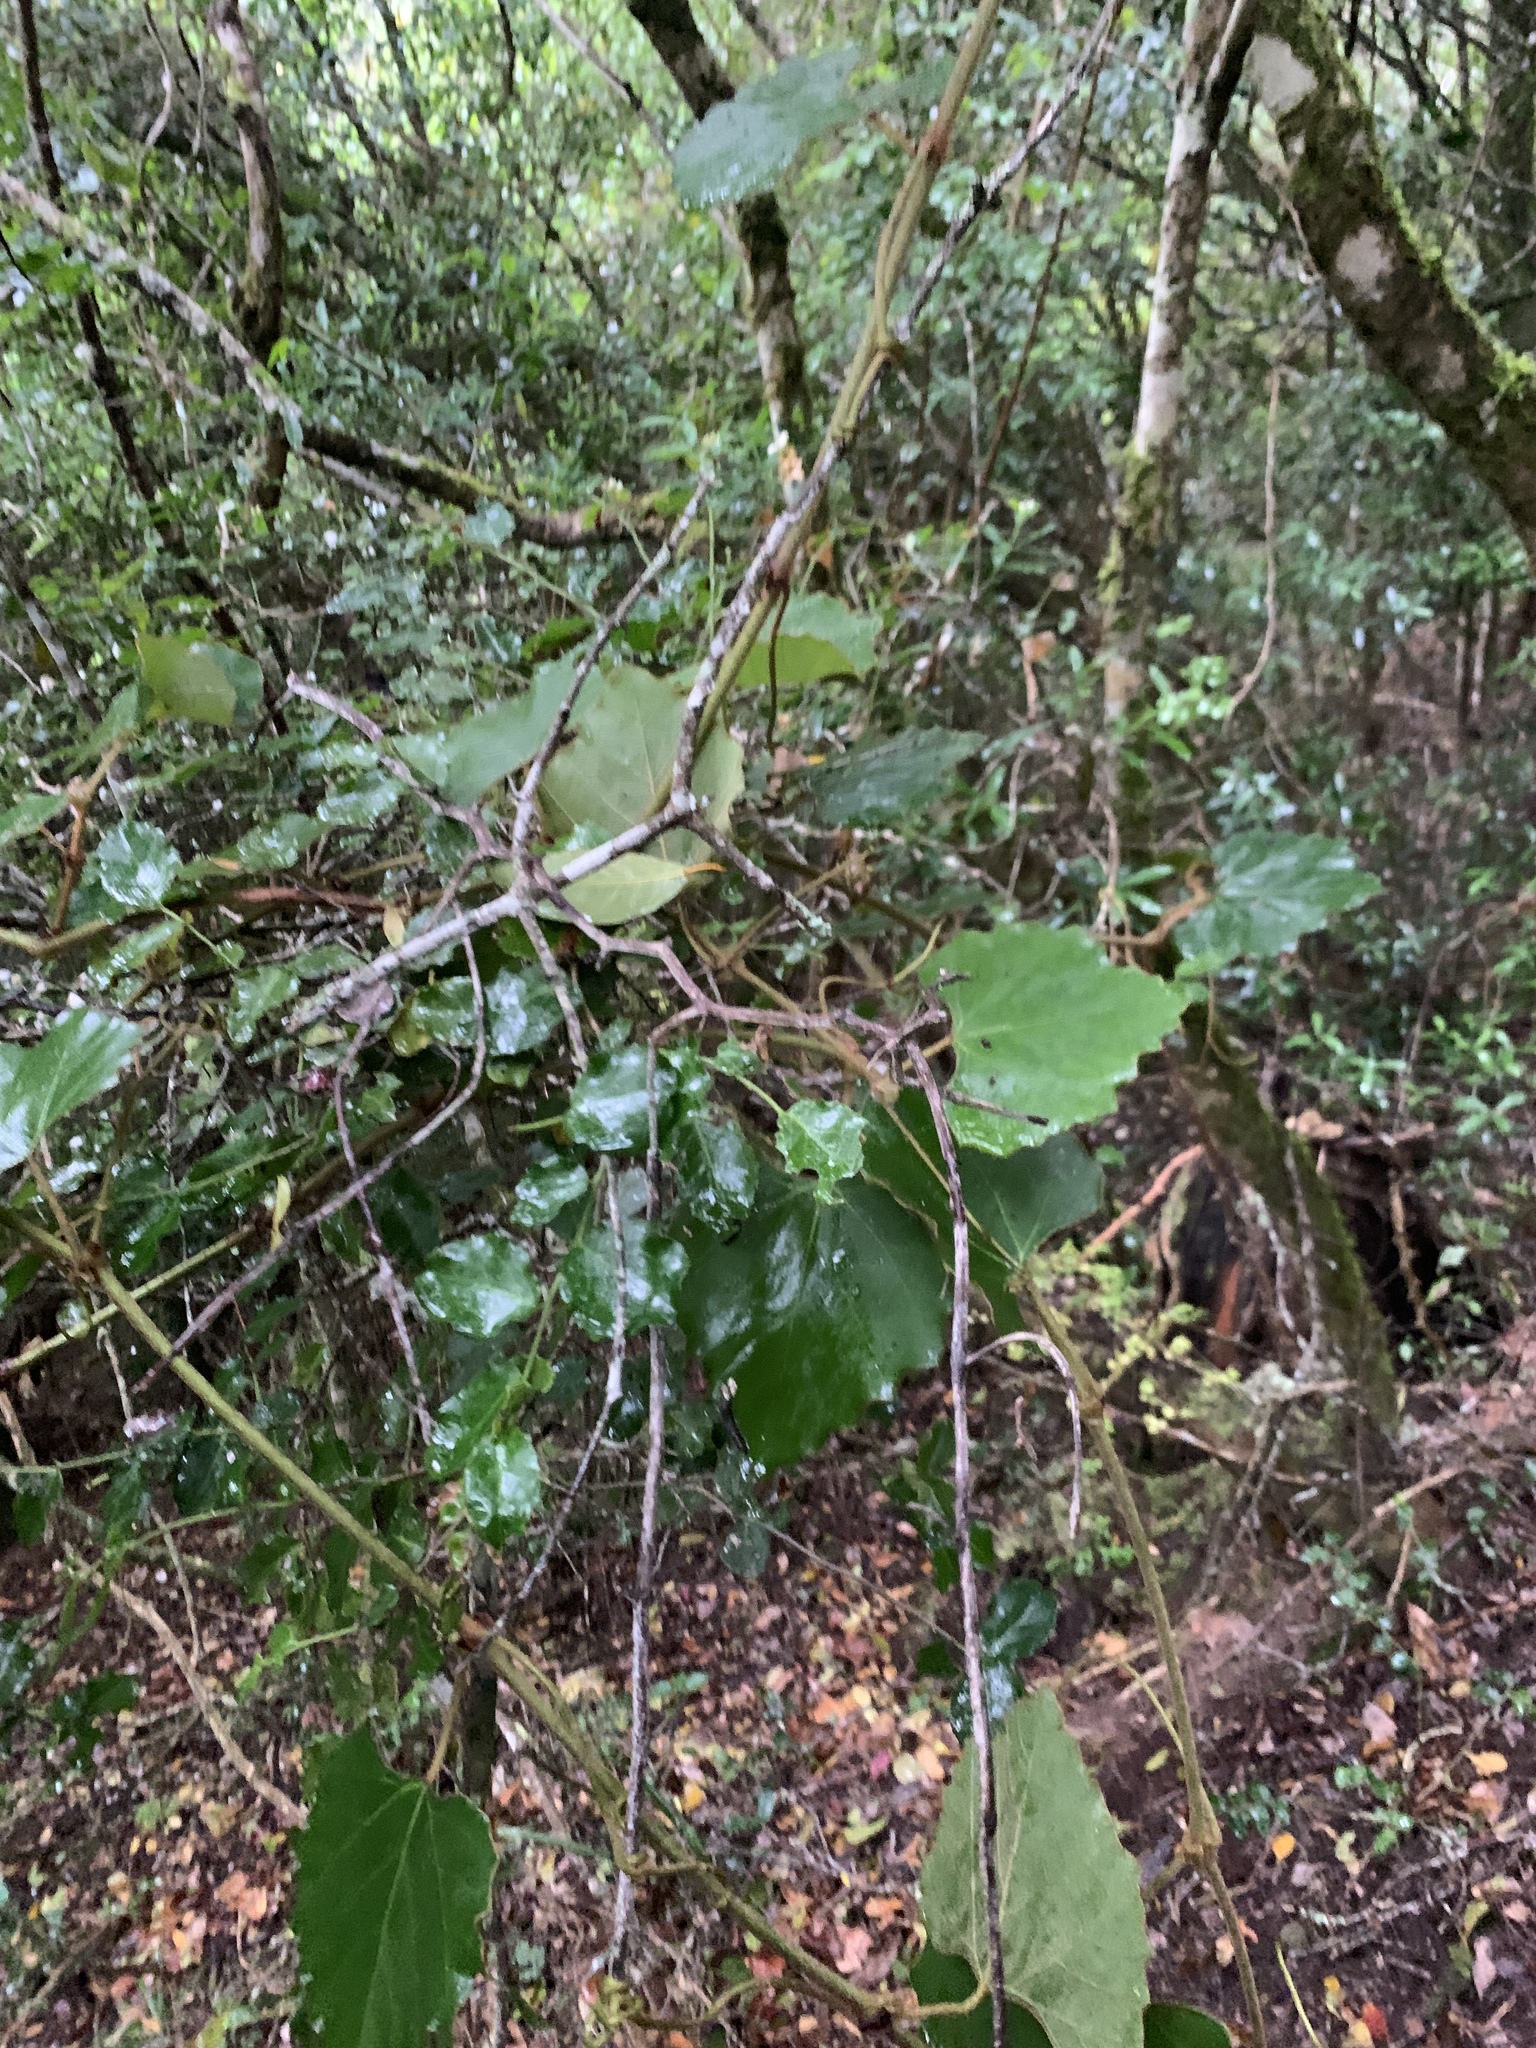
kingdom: Plantae
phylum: Tracheophyta
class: Magnoliopsida
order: Vitales
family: Vitaceae
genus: Rhoicissus
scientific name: Rhoicissus tomentosa
